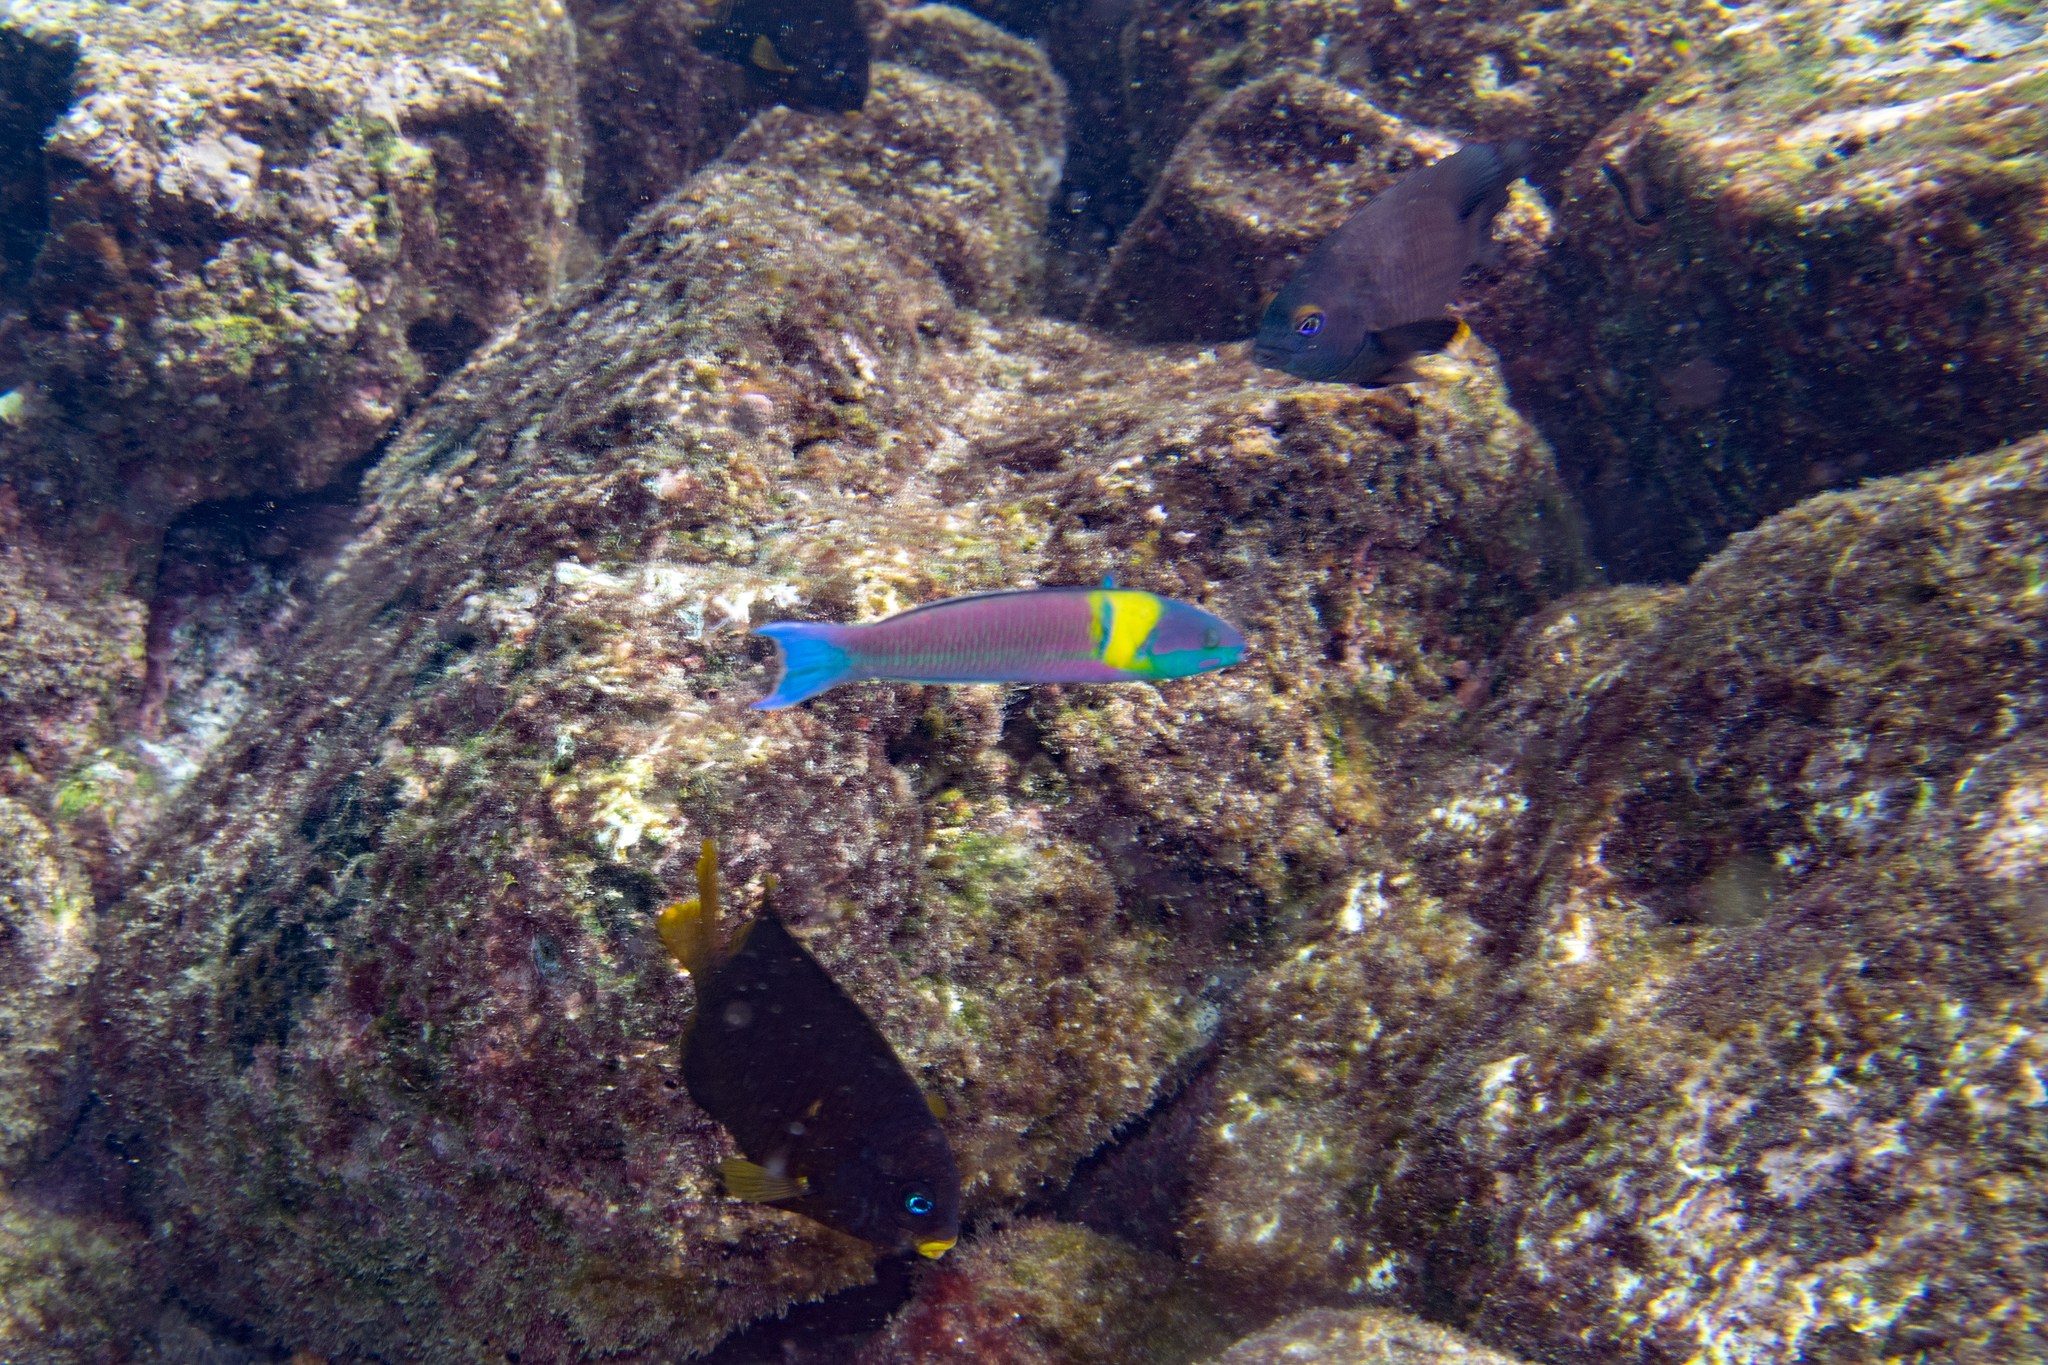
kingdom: Animalia
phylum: Chordata
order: Perciformes
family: Pomacentridae
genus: Stegastes
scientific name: Stegastes arcifrons
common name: Galapagos gregory
